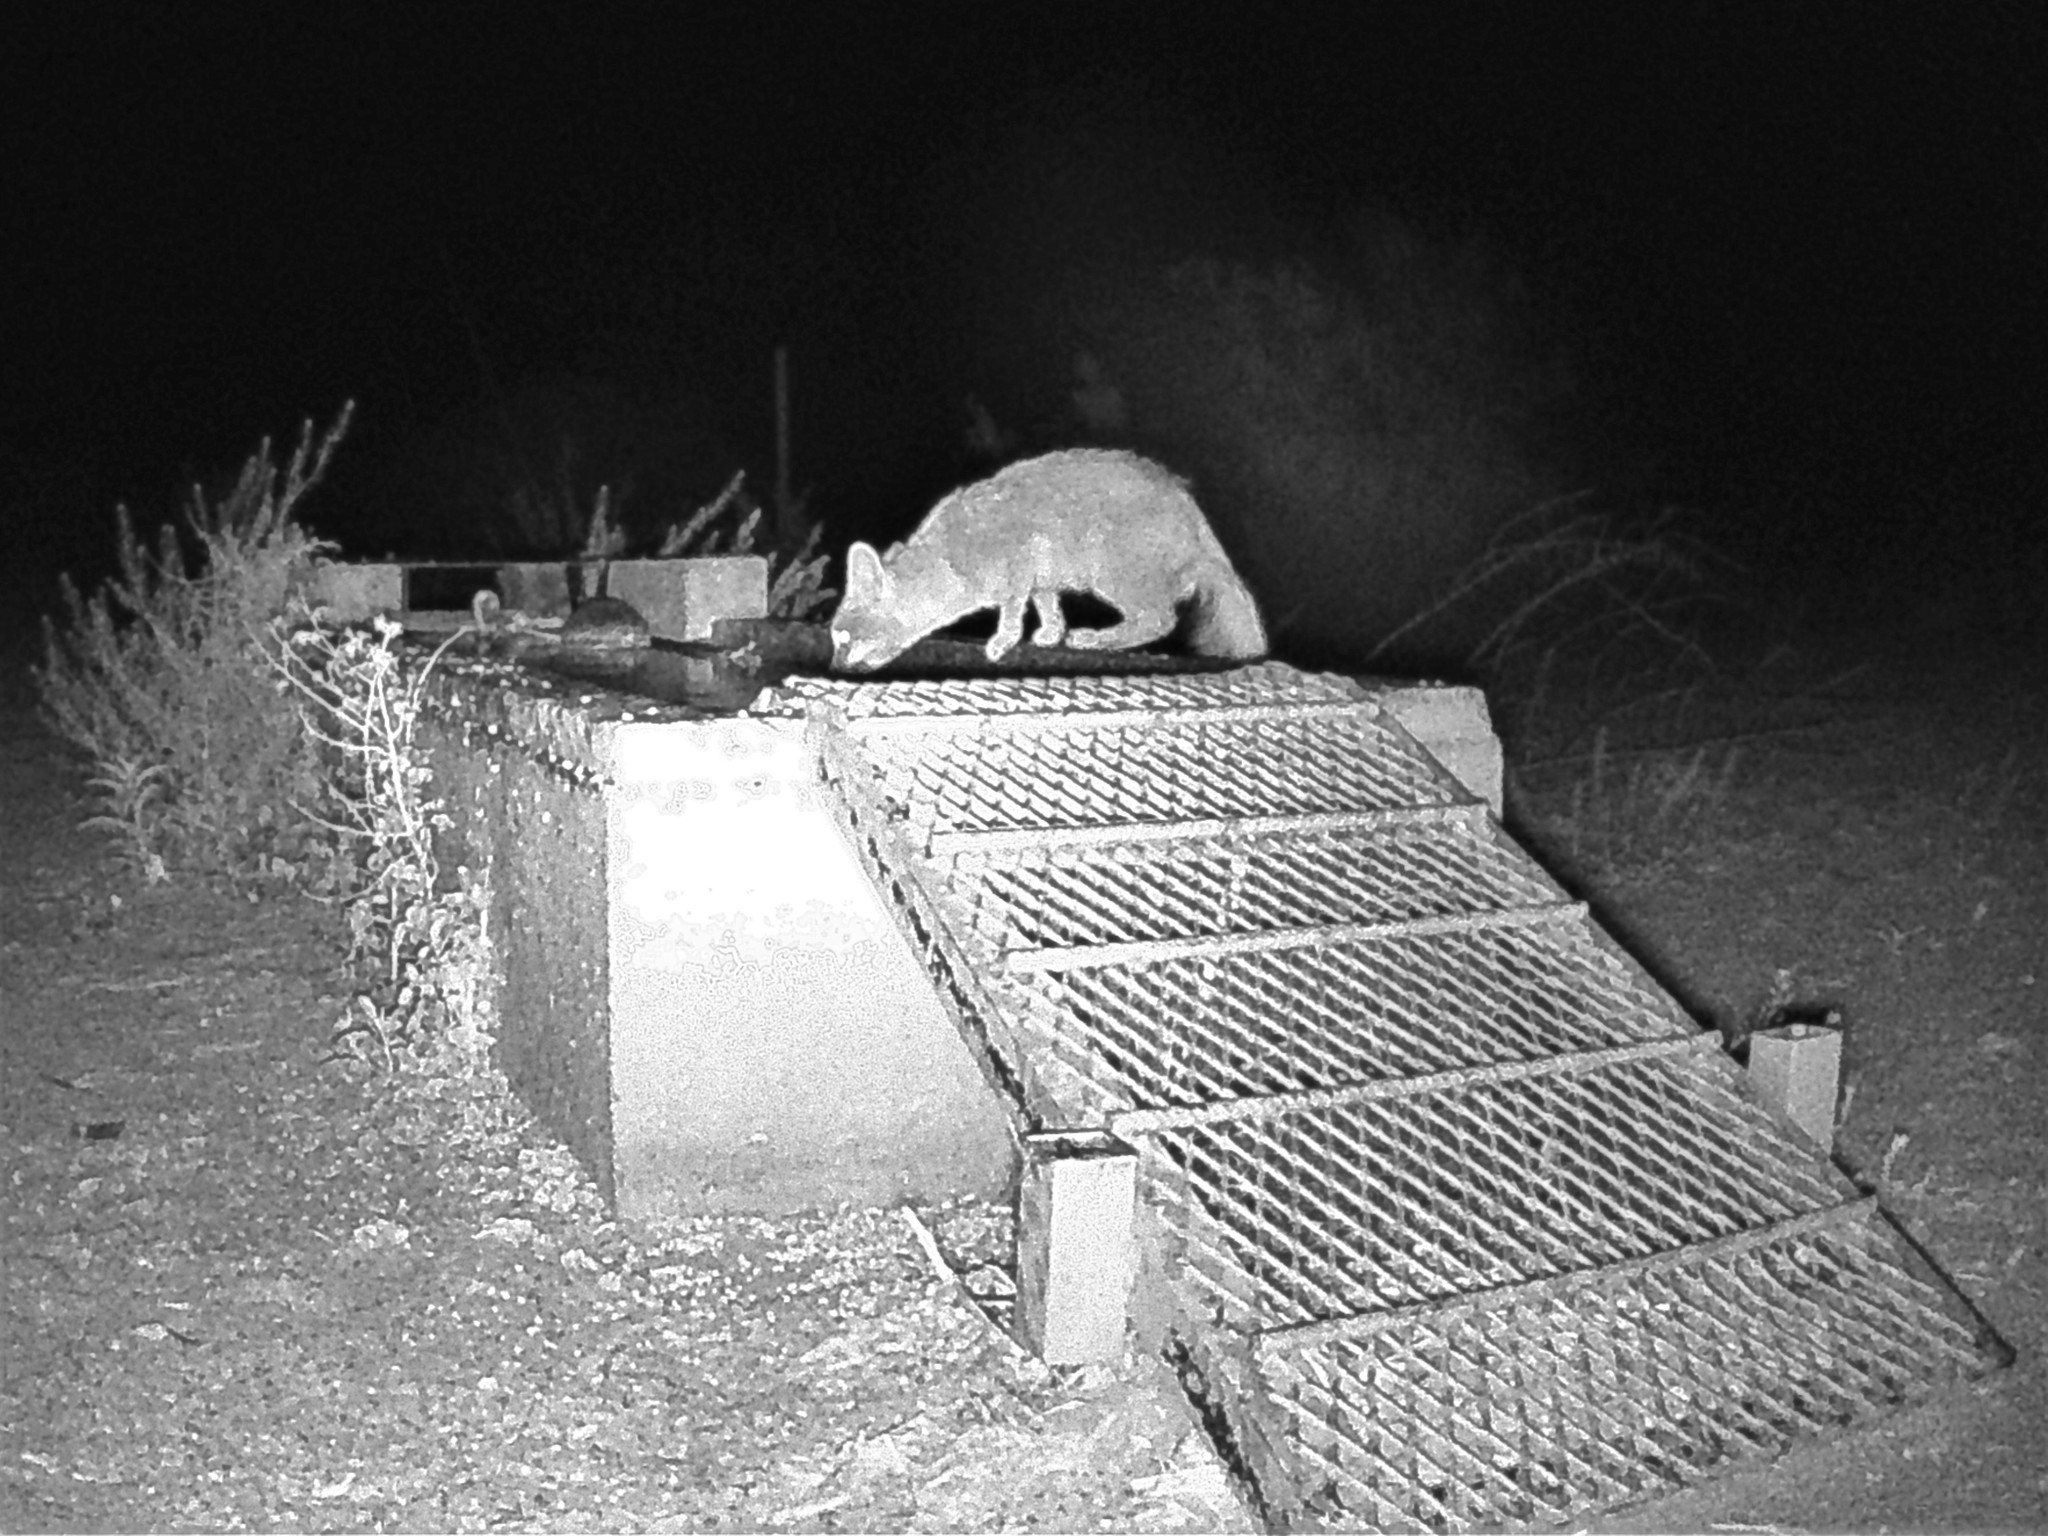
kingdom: Animalia
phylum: Chordata
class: Mammalia
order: Carnivora
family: Canidae
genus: Urocyon
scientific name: Urocyon cinereoargenteus
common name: Gray fox
